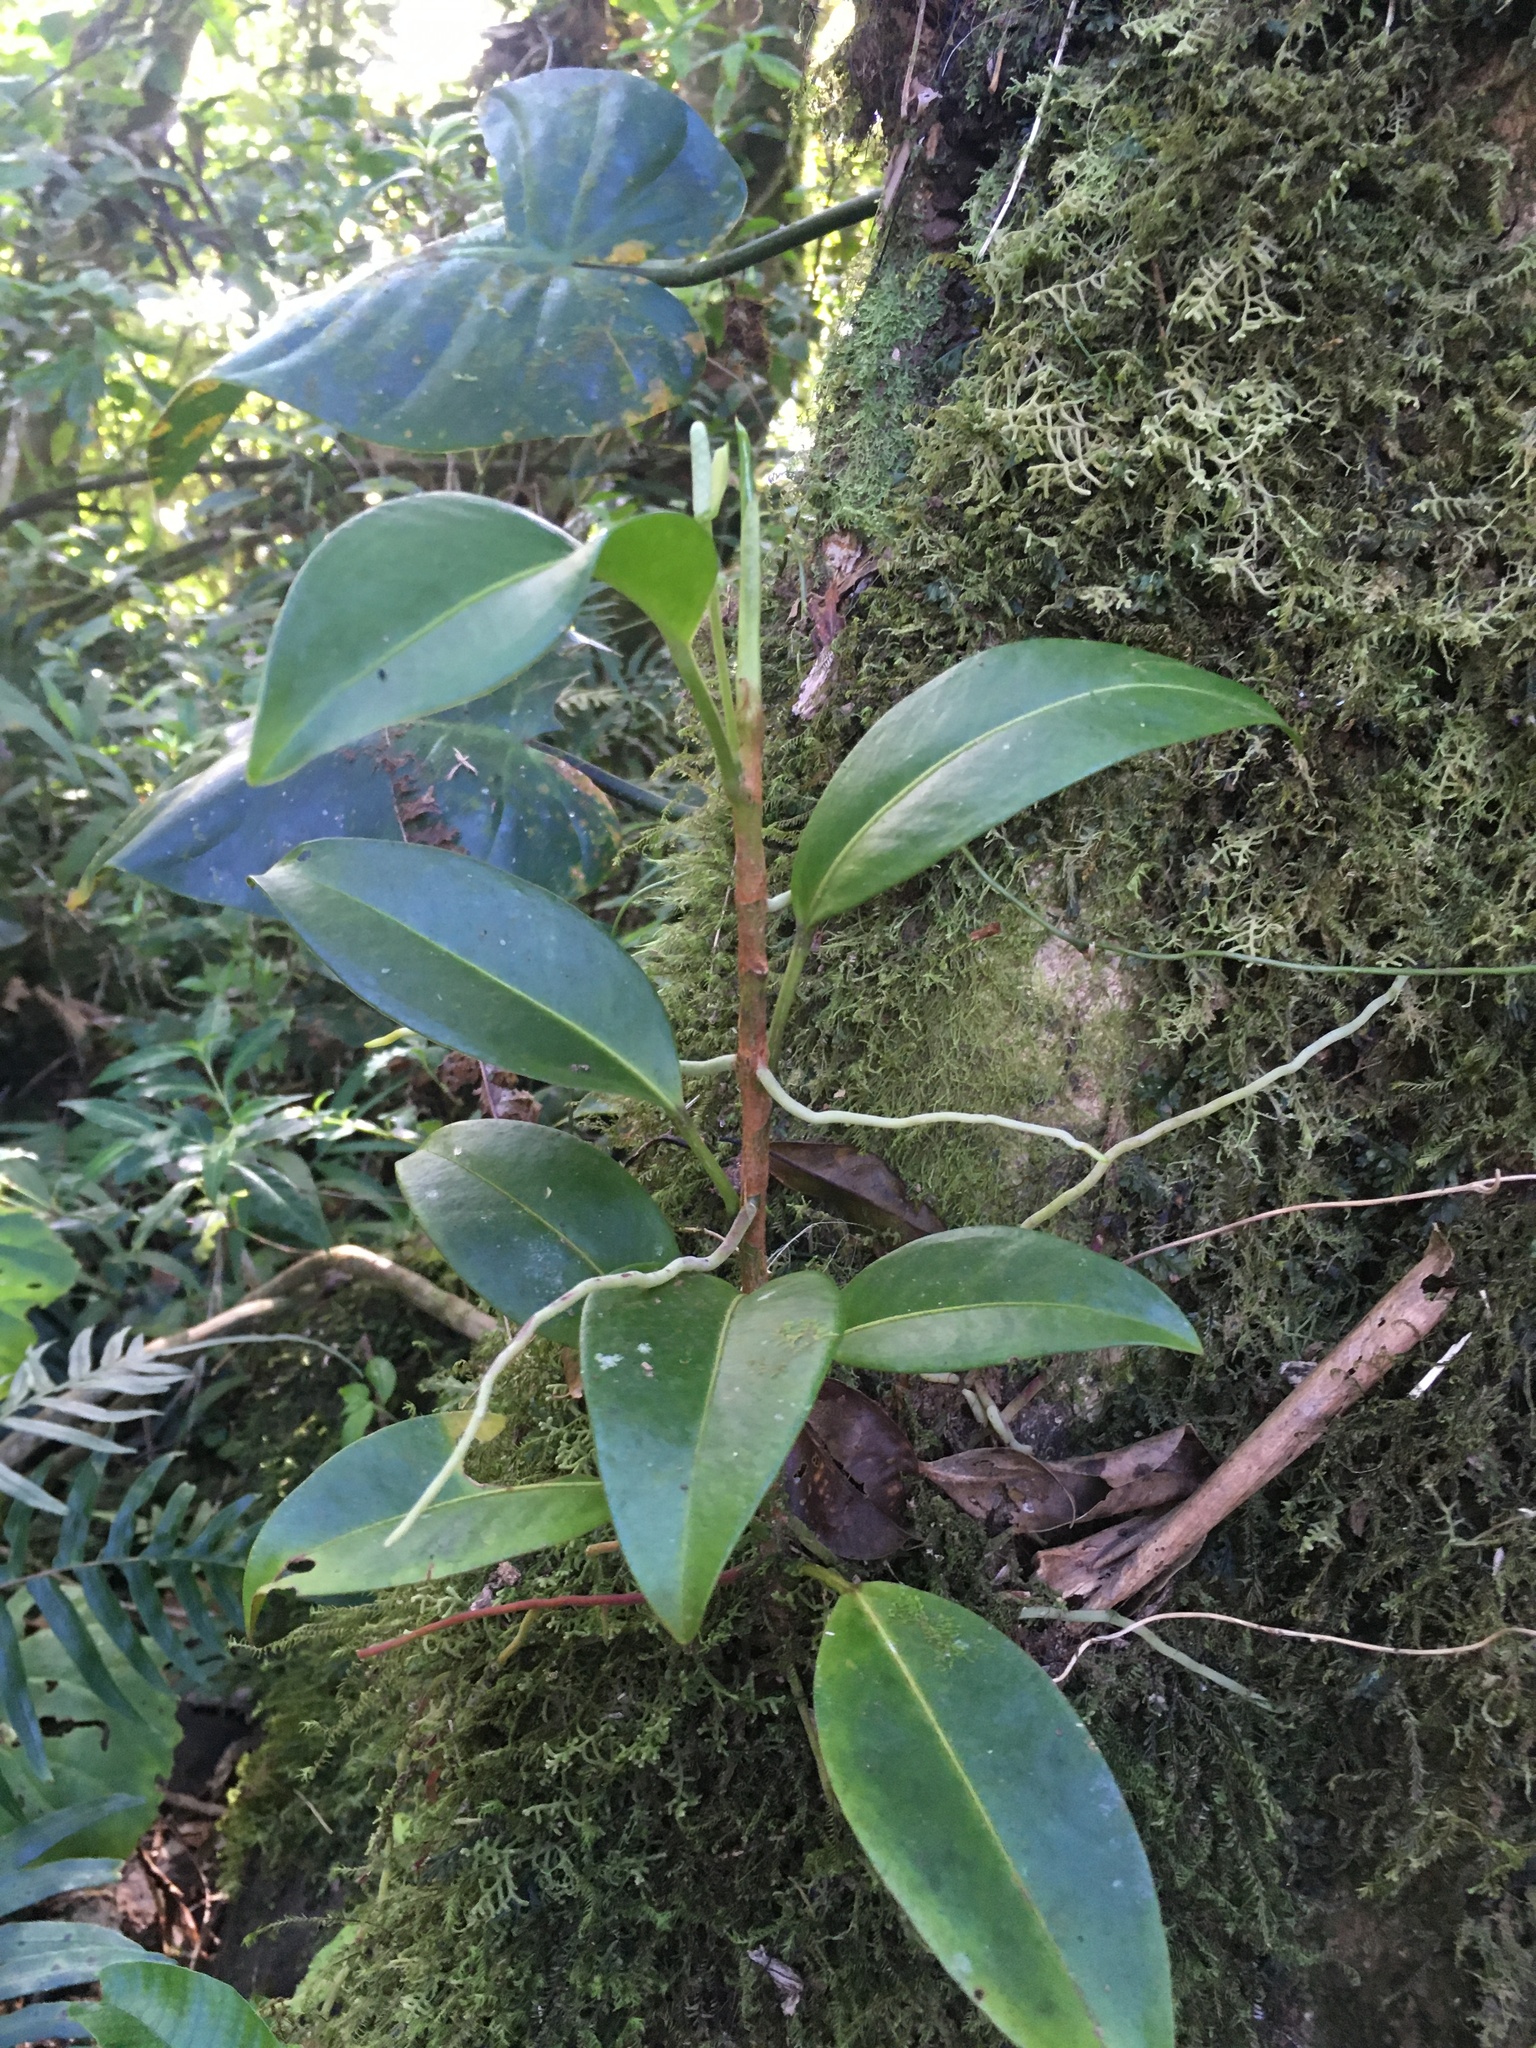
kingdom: Plantae
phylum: Tracheophyta
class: Liliopsida
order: Alismatales
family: Araceae
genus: Anthurium
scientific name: Anthurium scandens
